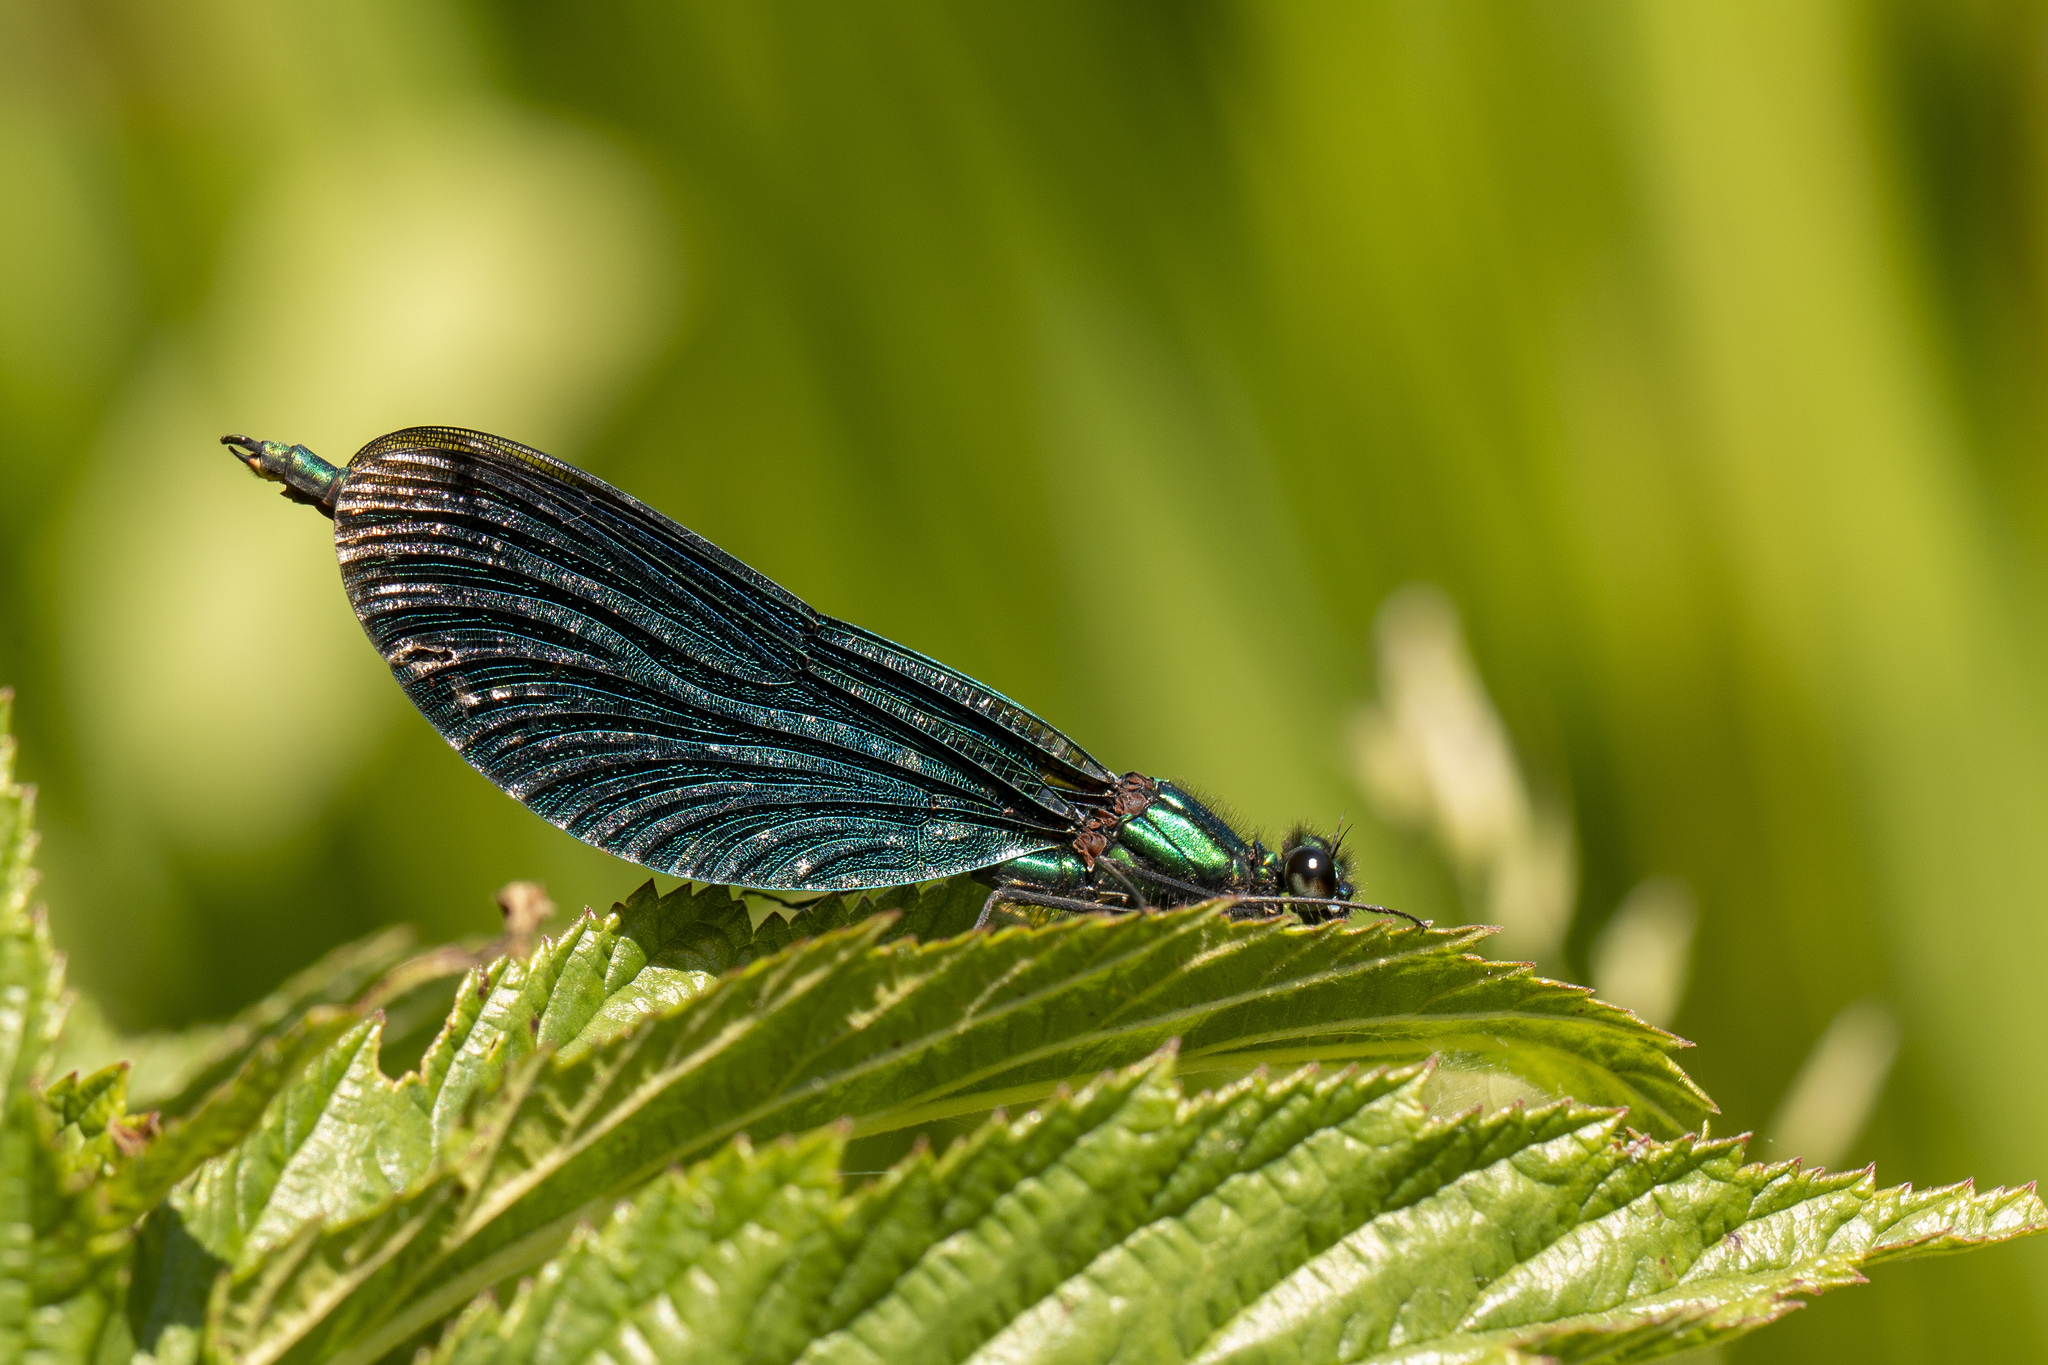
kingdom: Animalia
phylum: Arthropoda
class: Insecta
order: Odonata
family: Calopterygidae
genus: Calopteryx
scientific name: Calopteryx virgo
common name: Beautiful demoiselle
